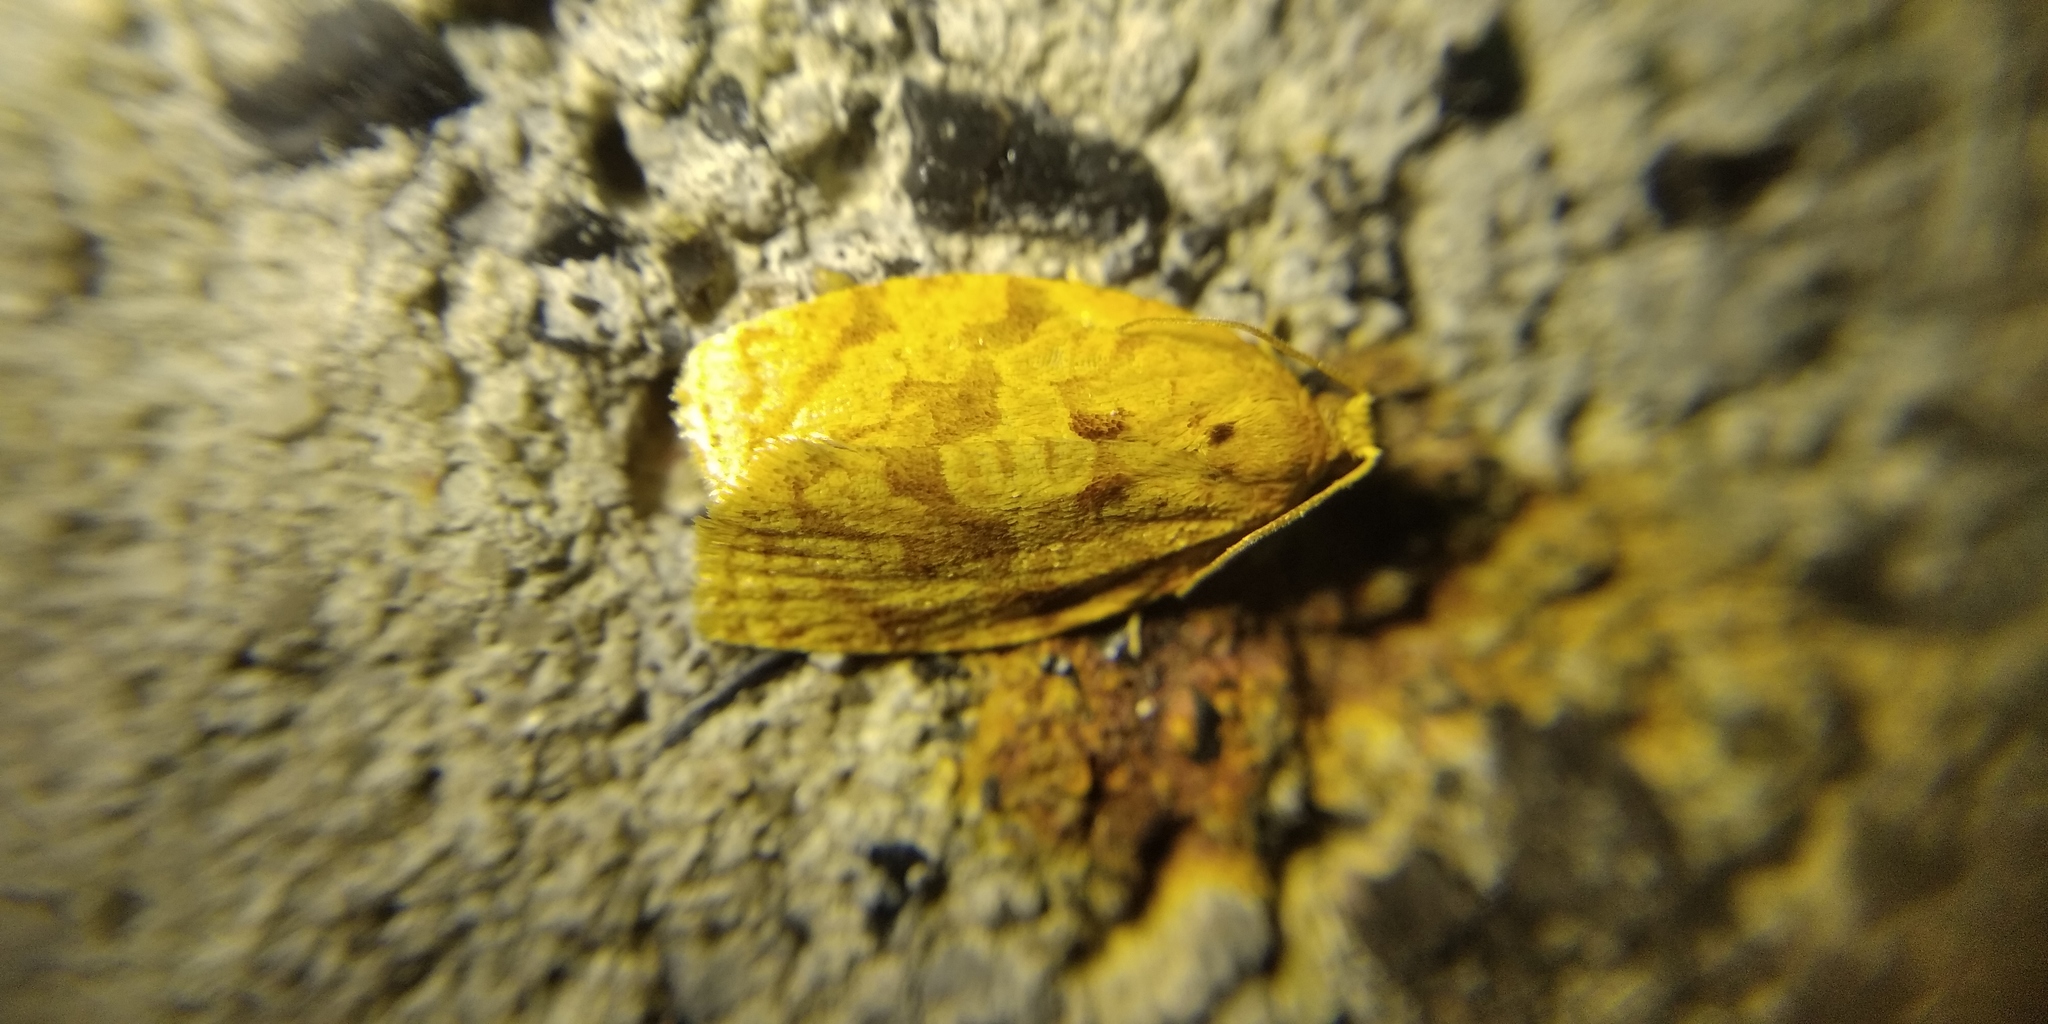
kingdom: Animalia
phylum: Arthropoda
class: Insecta
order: Lepidoptera
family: Tortricidae
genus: Adoxophyes
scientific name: Adoxophyes orana
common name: Summer fruit tortrix
